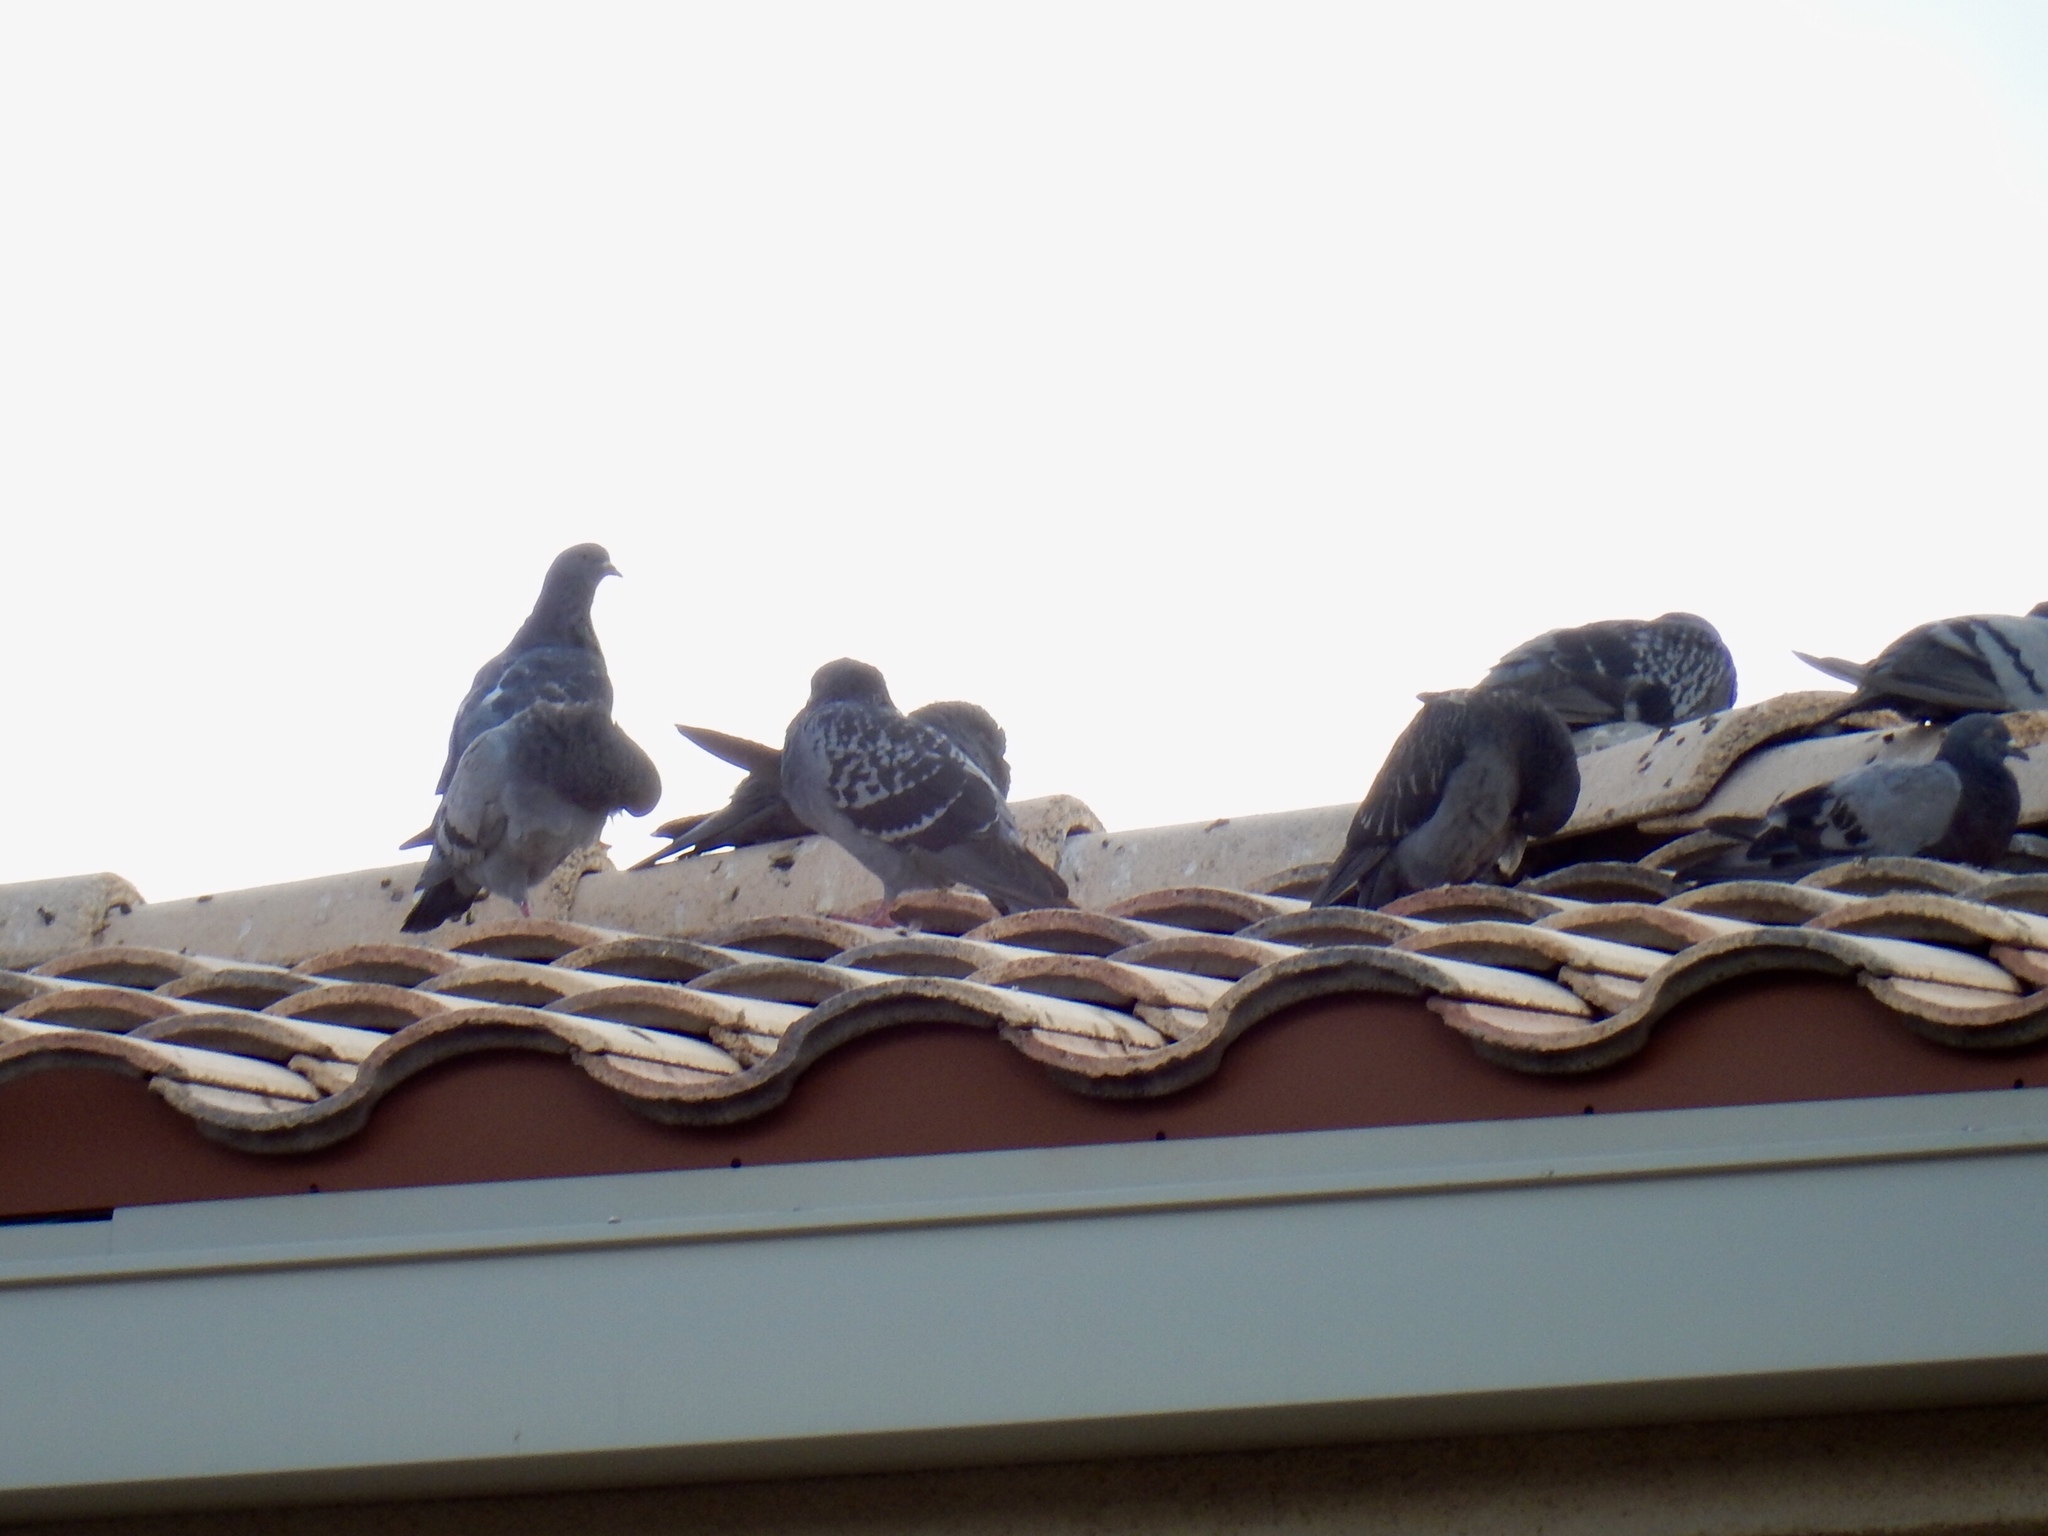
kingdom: Animalia
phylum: Chordata
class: Aves
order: Columbiformes
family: Columbidae
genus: Columba
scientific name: Columba livia
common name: Rock pigeon
